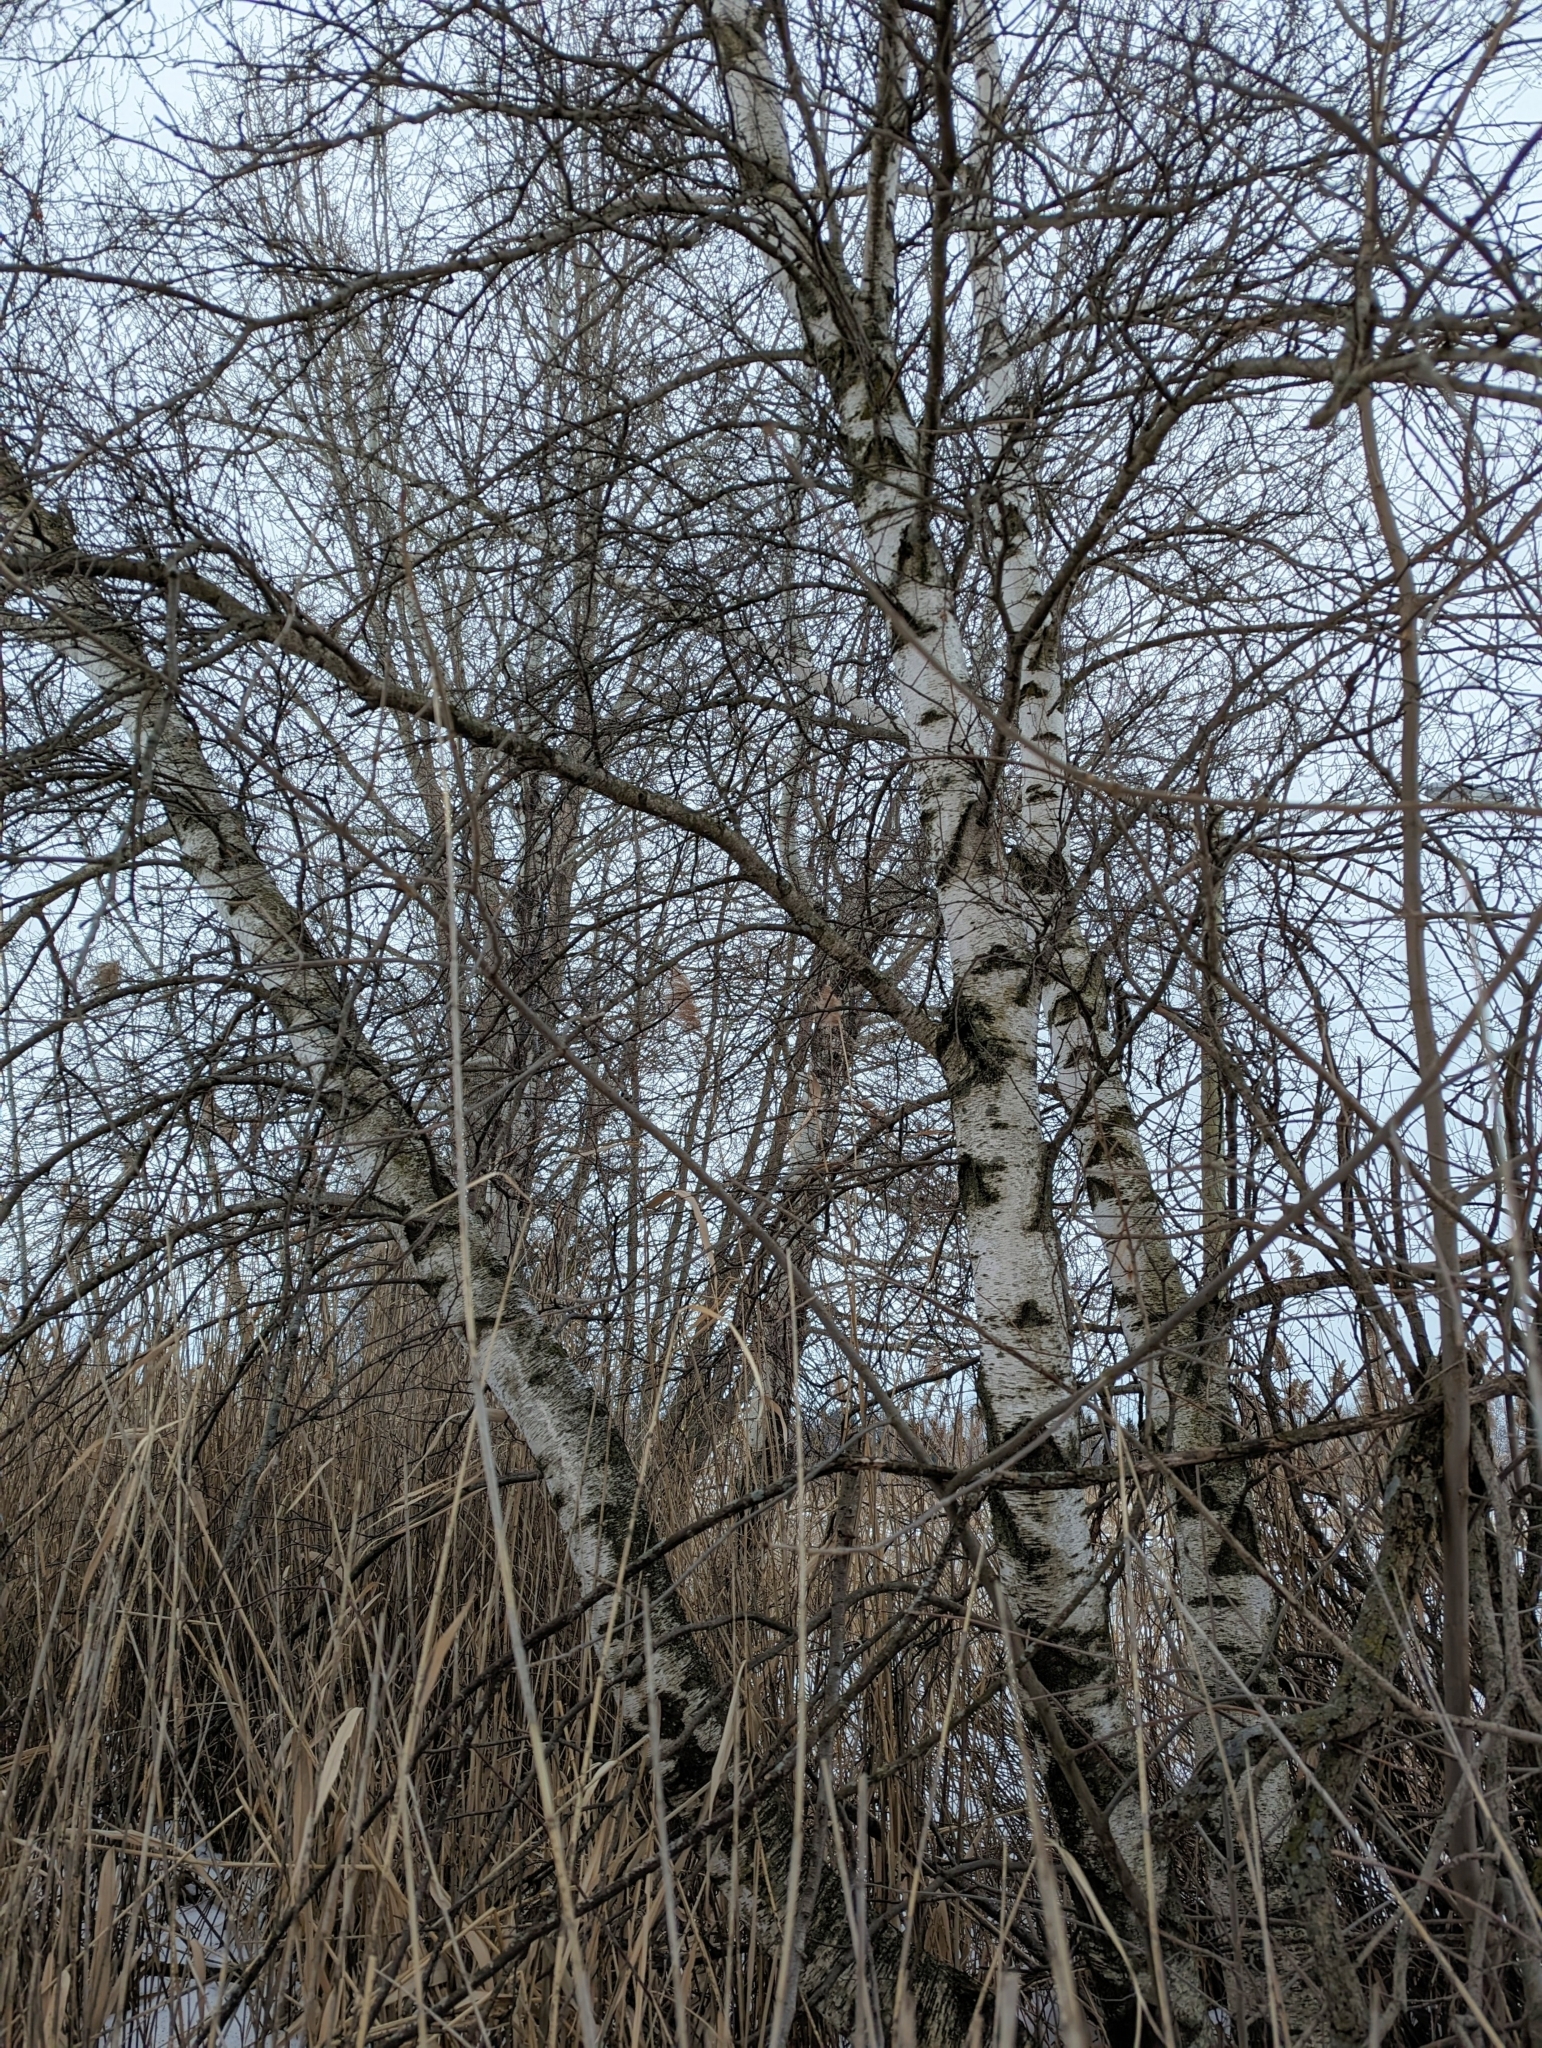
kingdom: Plantae
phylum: Tracheophyta
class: Magnoliopsida
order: Fagales
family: Betulaceae
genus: Betula
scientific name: Betula populifolia
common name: Fire birch
